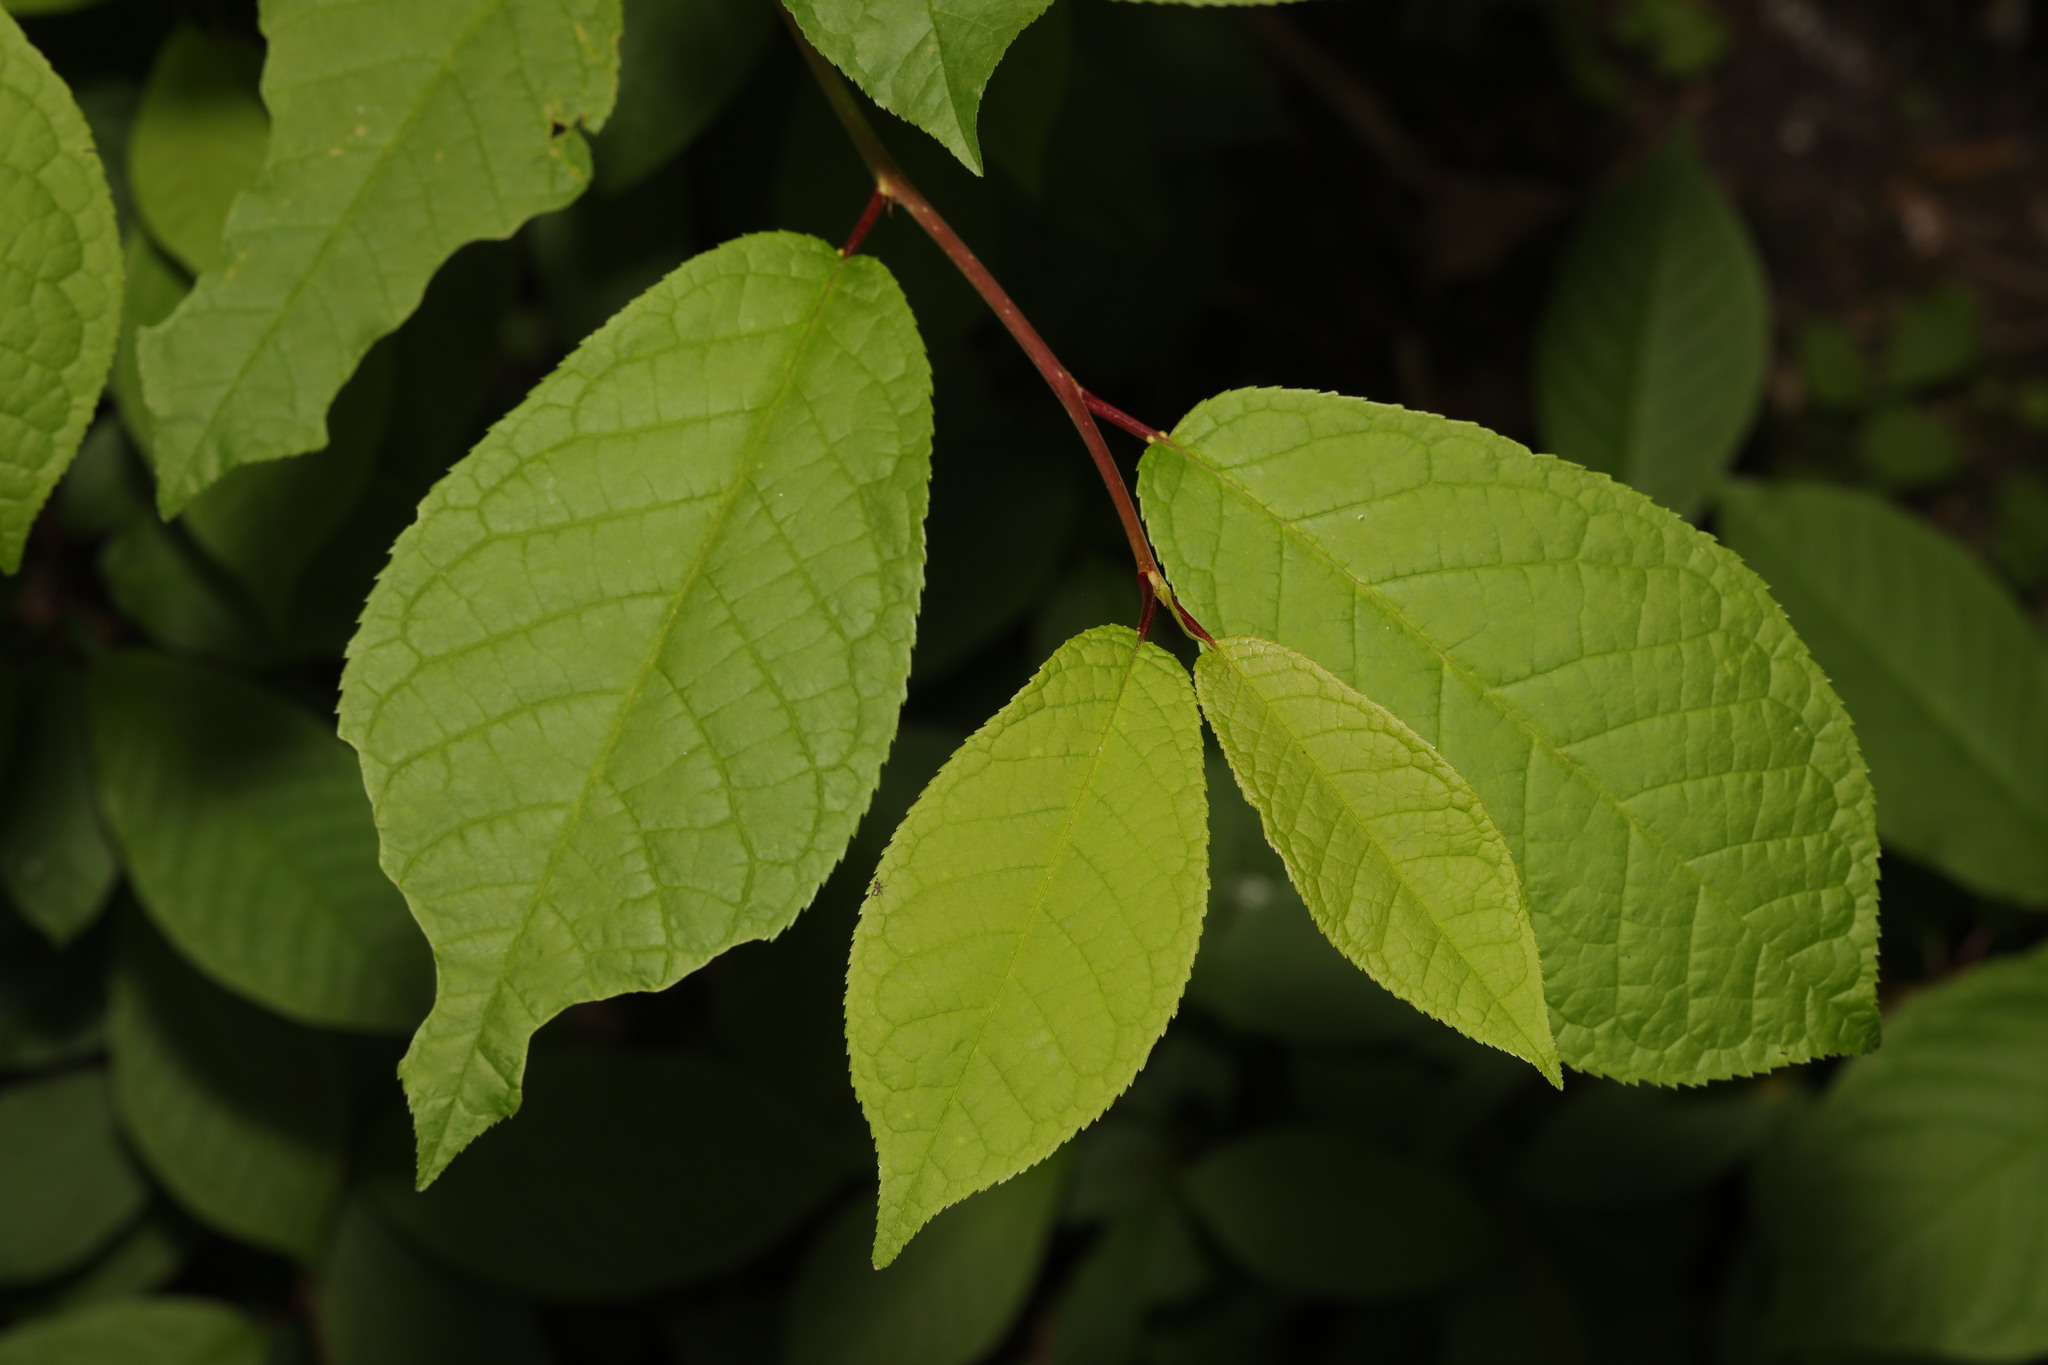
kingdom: Plantae
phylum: Tracheophyta
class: Magnoliopsida
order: Rosales
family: Rosaceae
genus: Prunus
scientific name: Prunus padus
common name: Bird cherry
